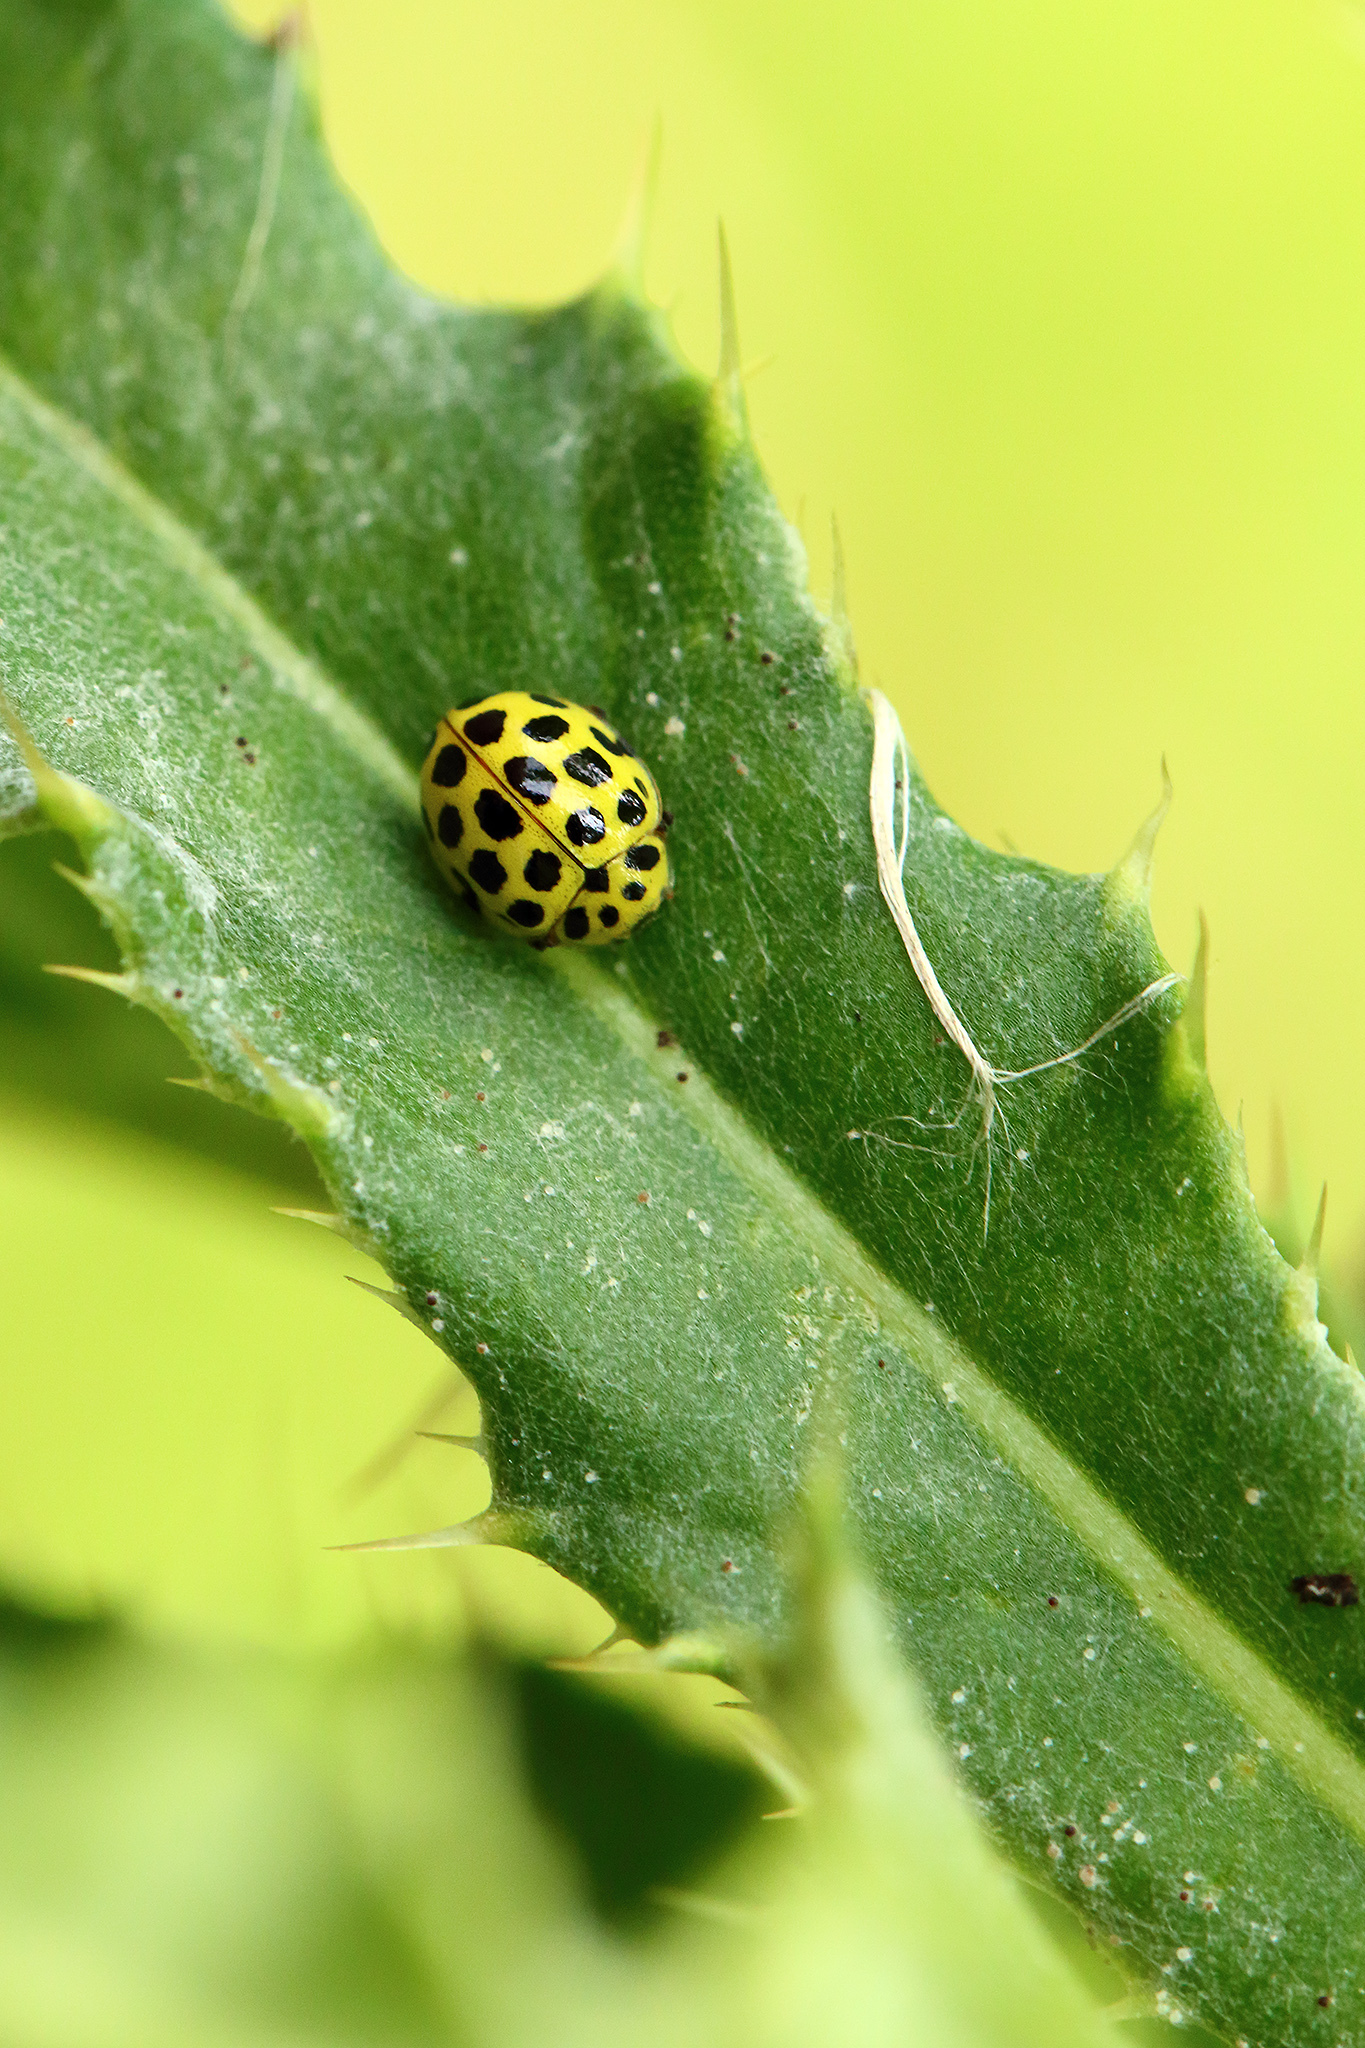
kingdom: Animalia
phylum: Arthropoda
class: Insecta
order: Coleoptera
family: Coccinellidae
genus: Psyllobora
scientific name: Psyllobora vigintiduopunctata
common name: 22-spot ladybird
